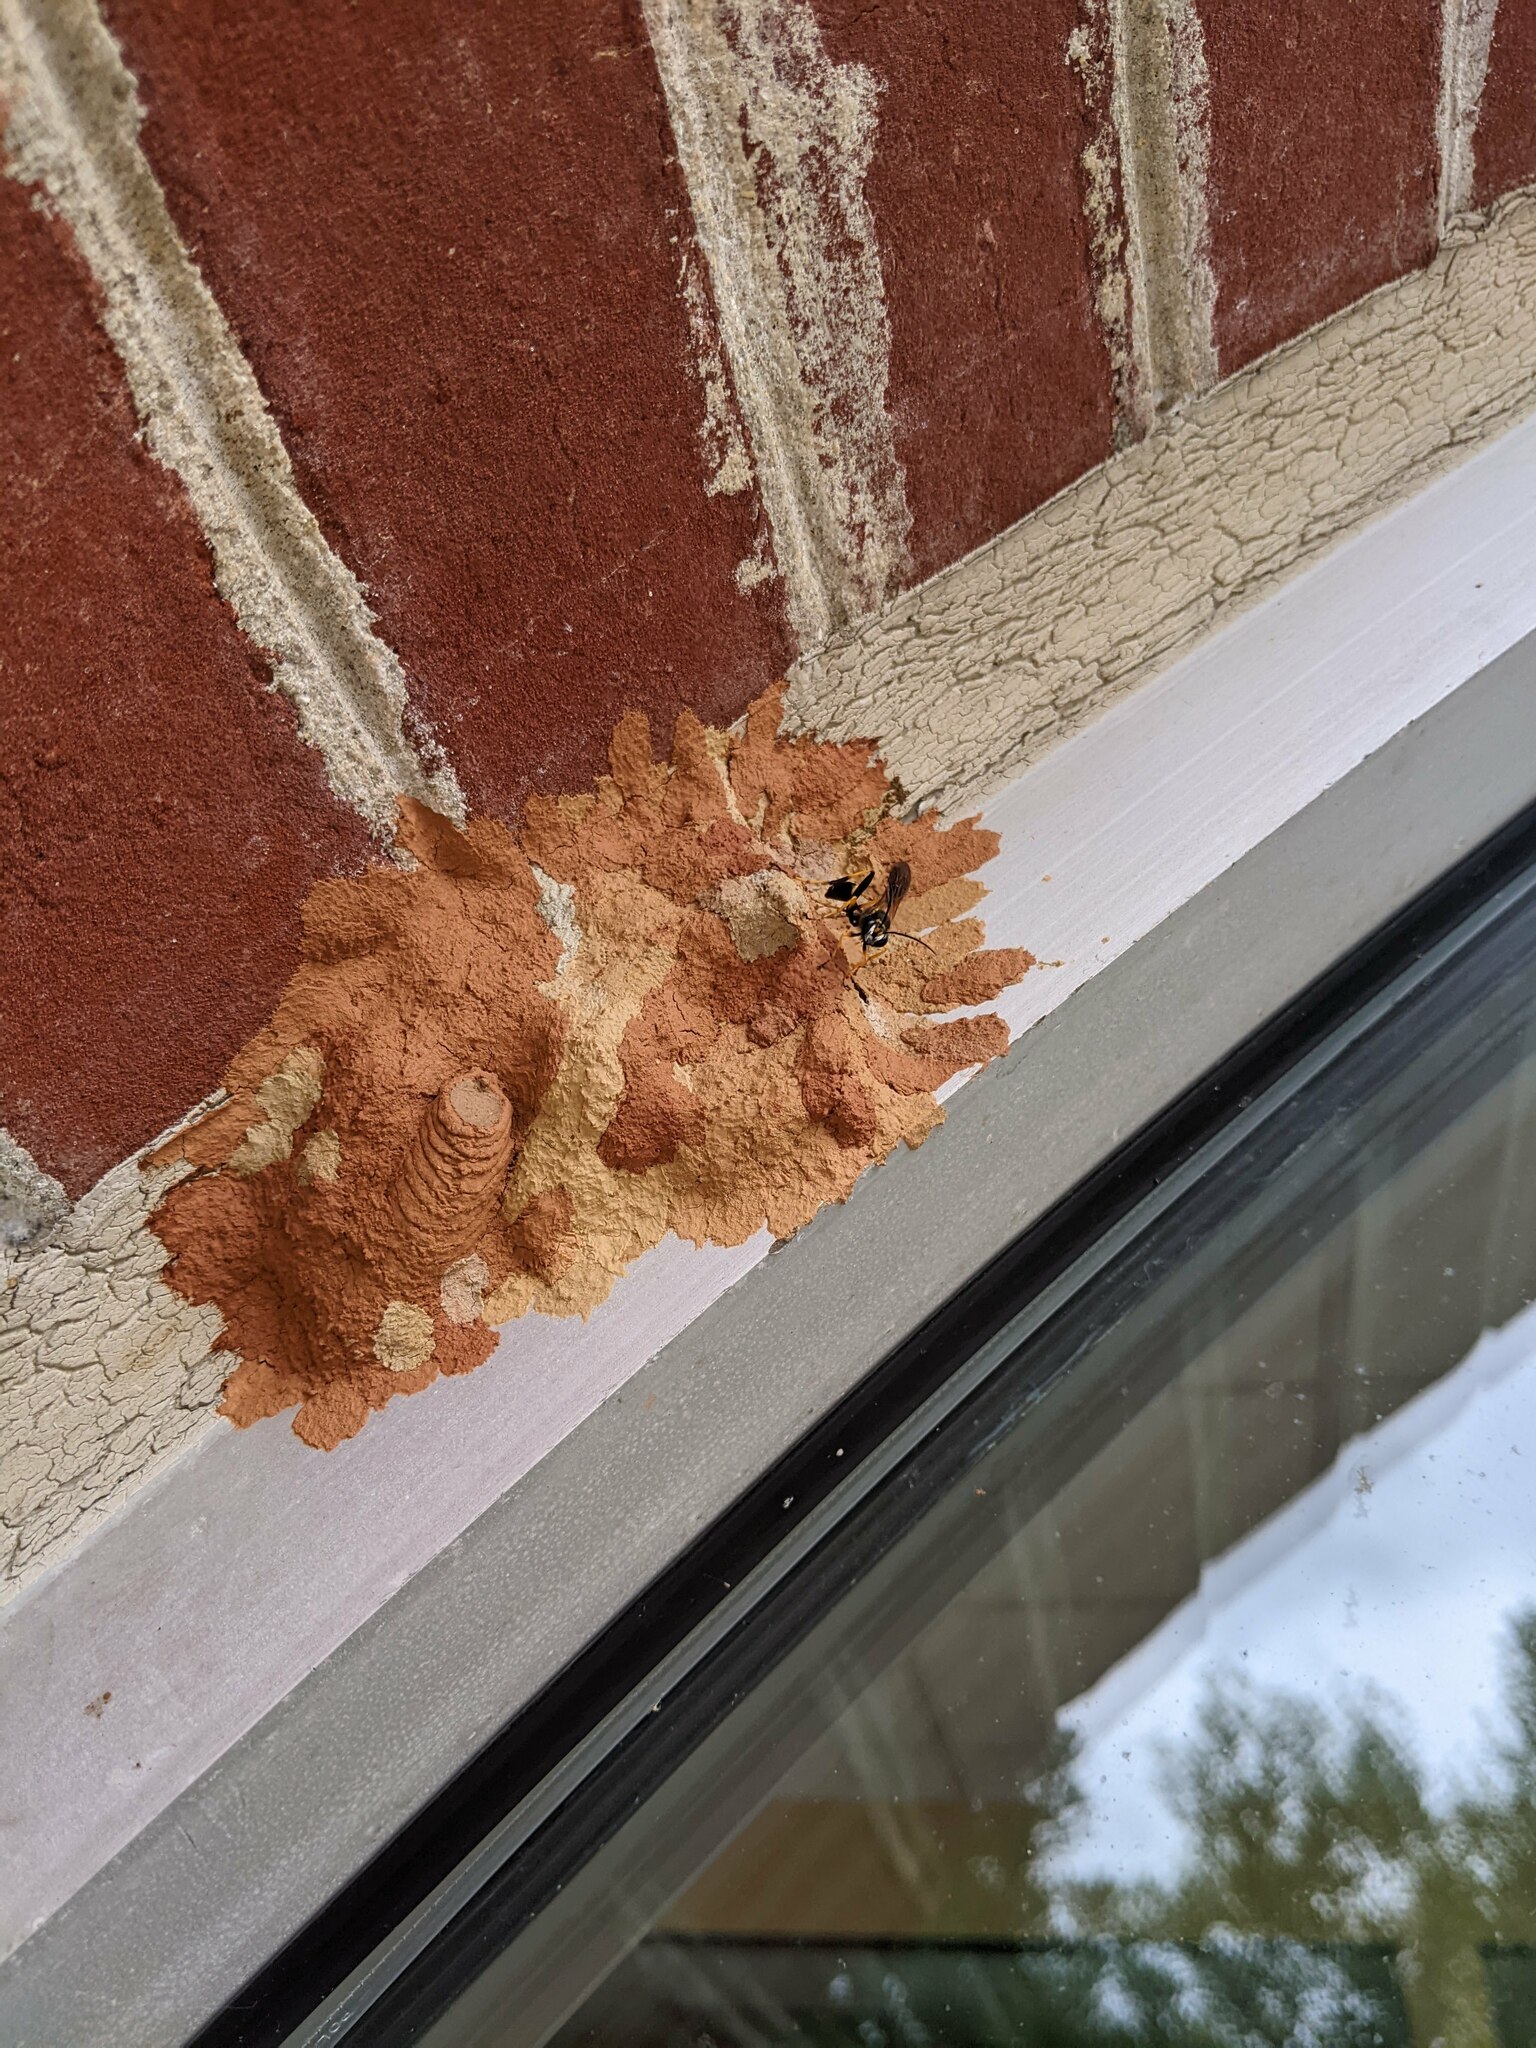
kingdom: Animalia
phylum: Arthropoda
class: Insecta
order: Hymenoptera
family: Sphecidae
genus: Sceliphron
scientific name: Sceliphron caementarium
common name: Mud dauber
